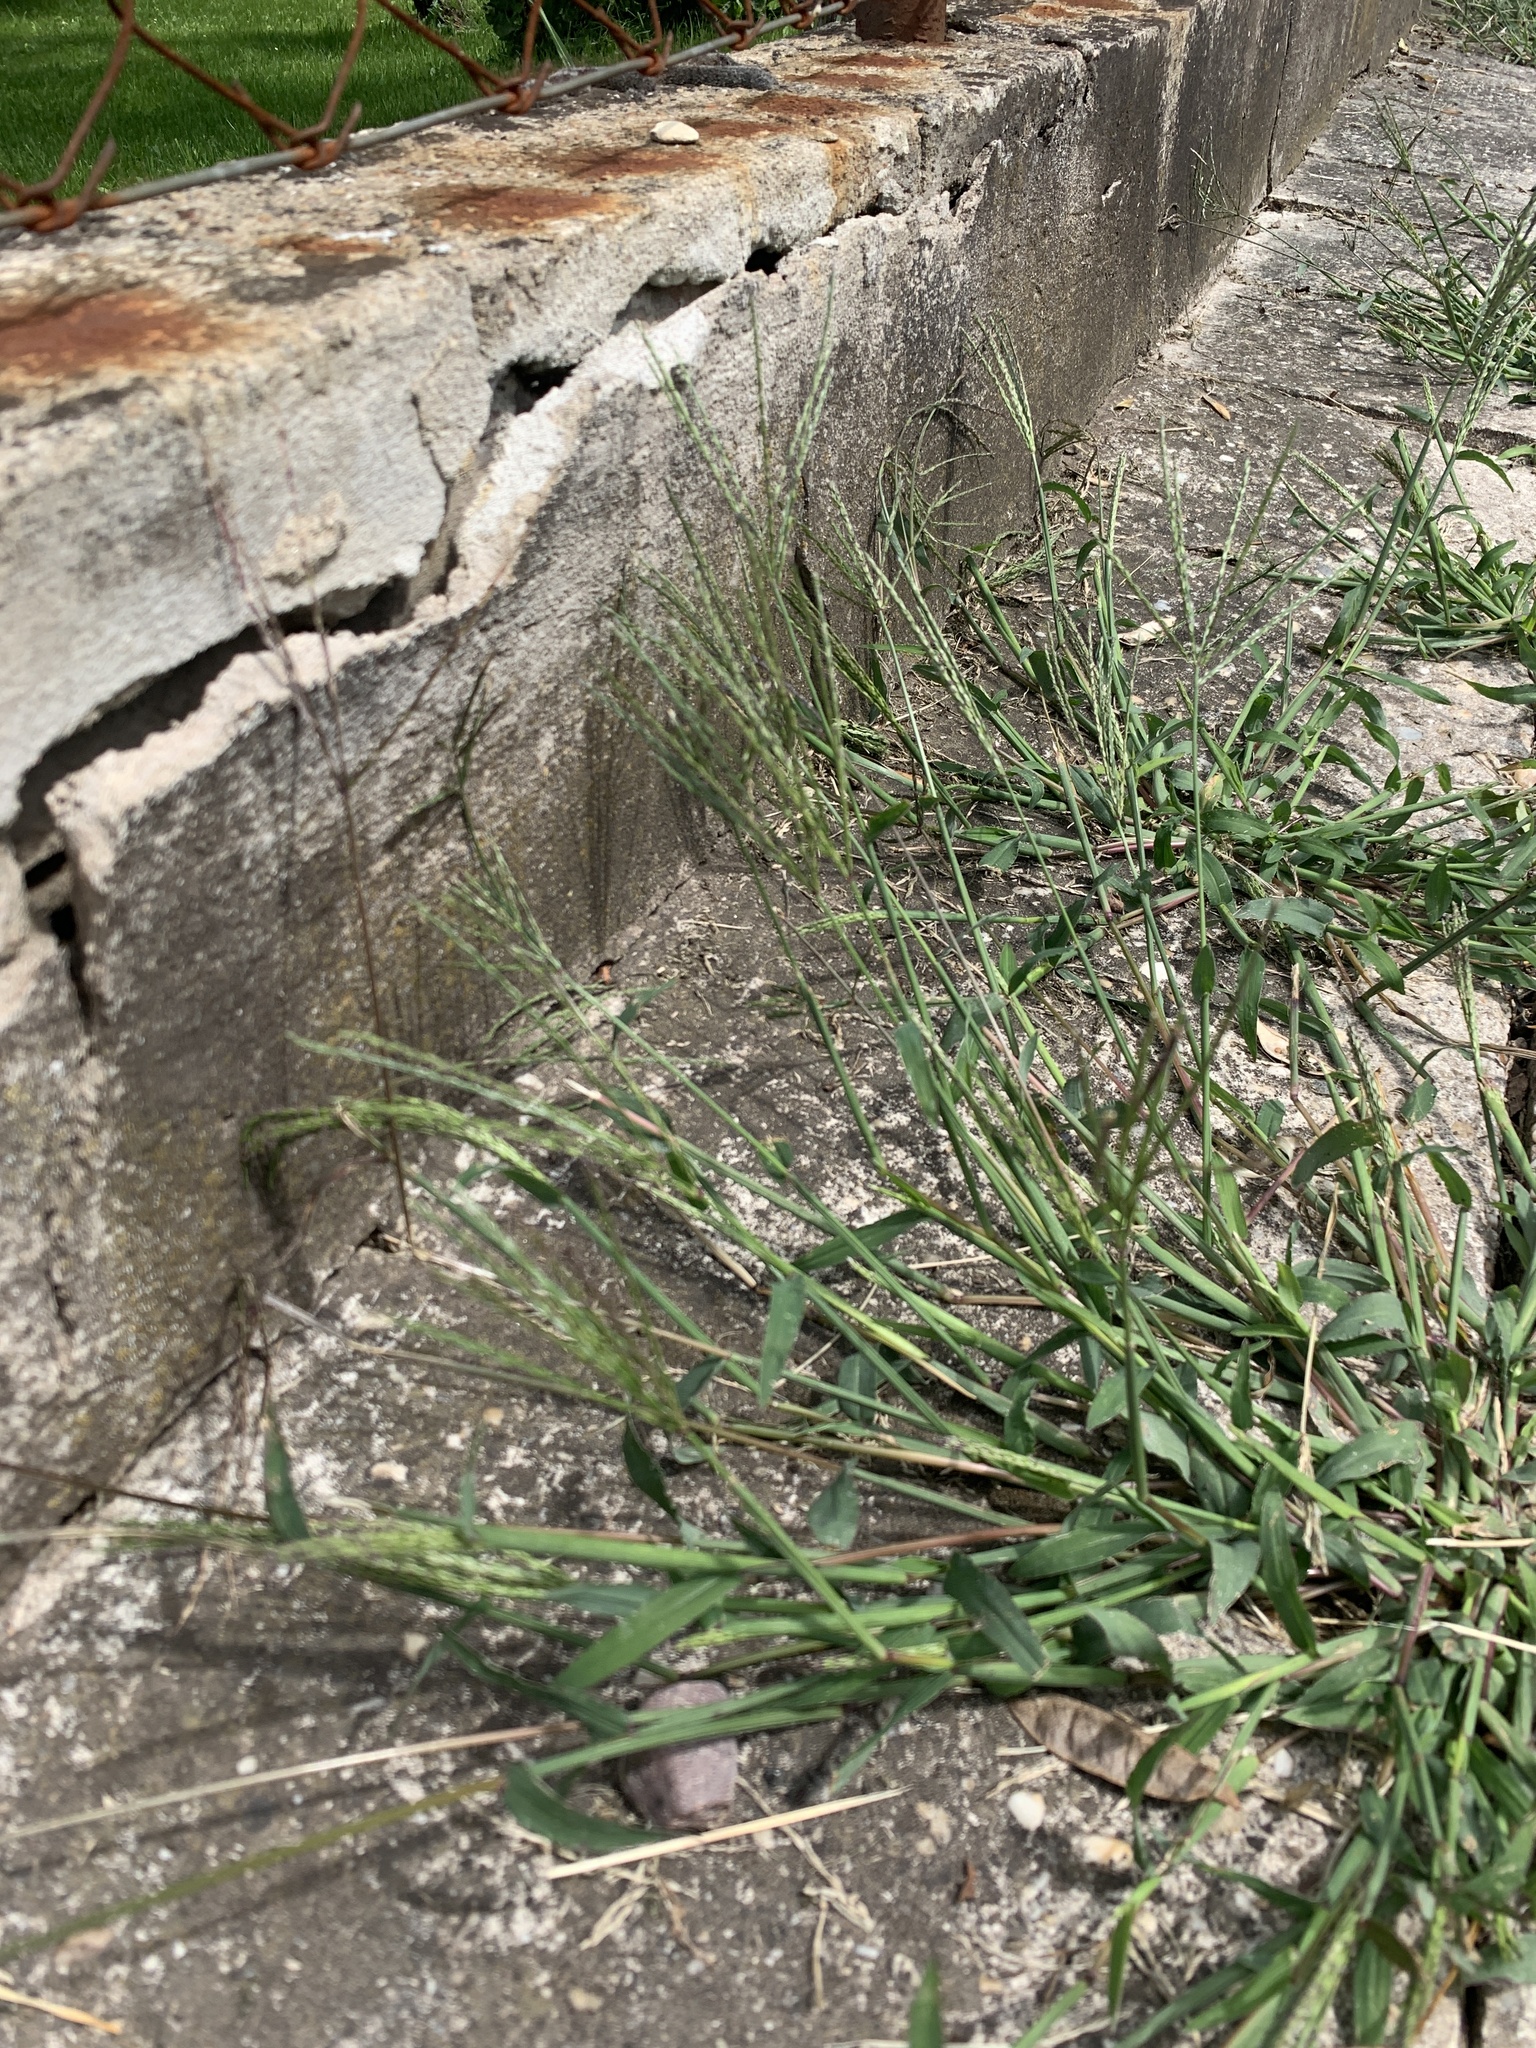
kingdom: Plantae
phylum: Tracheophyta
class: Liliopsida
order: Poales
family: Poaceae
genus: Digitaria
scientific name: Digitaria sanguinalis
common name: Hairy crabgrass
